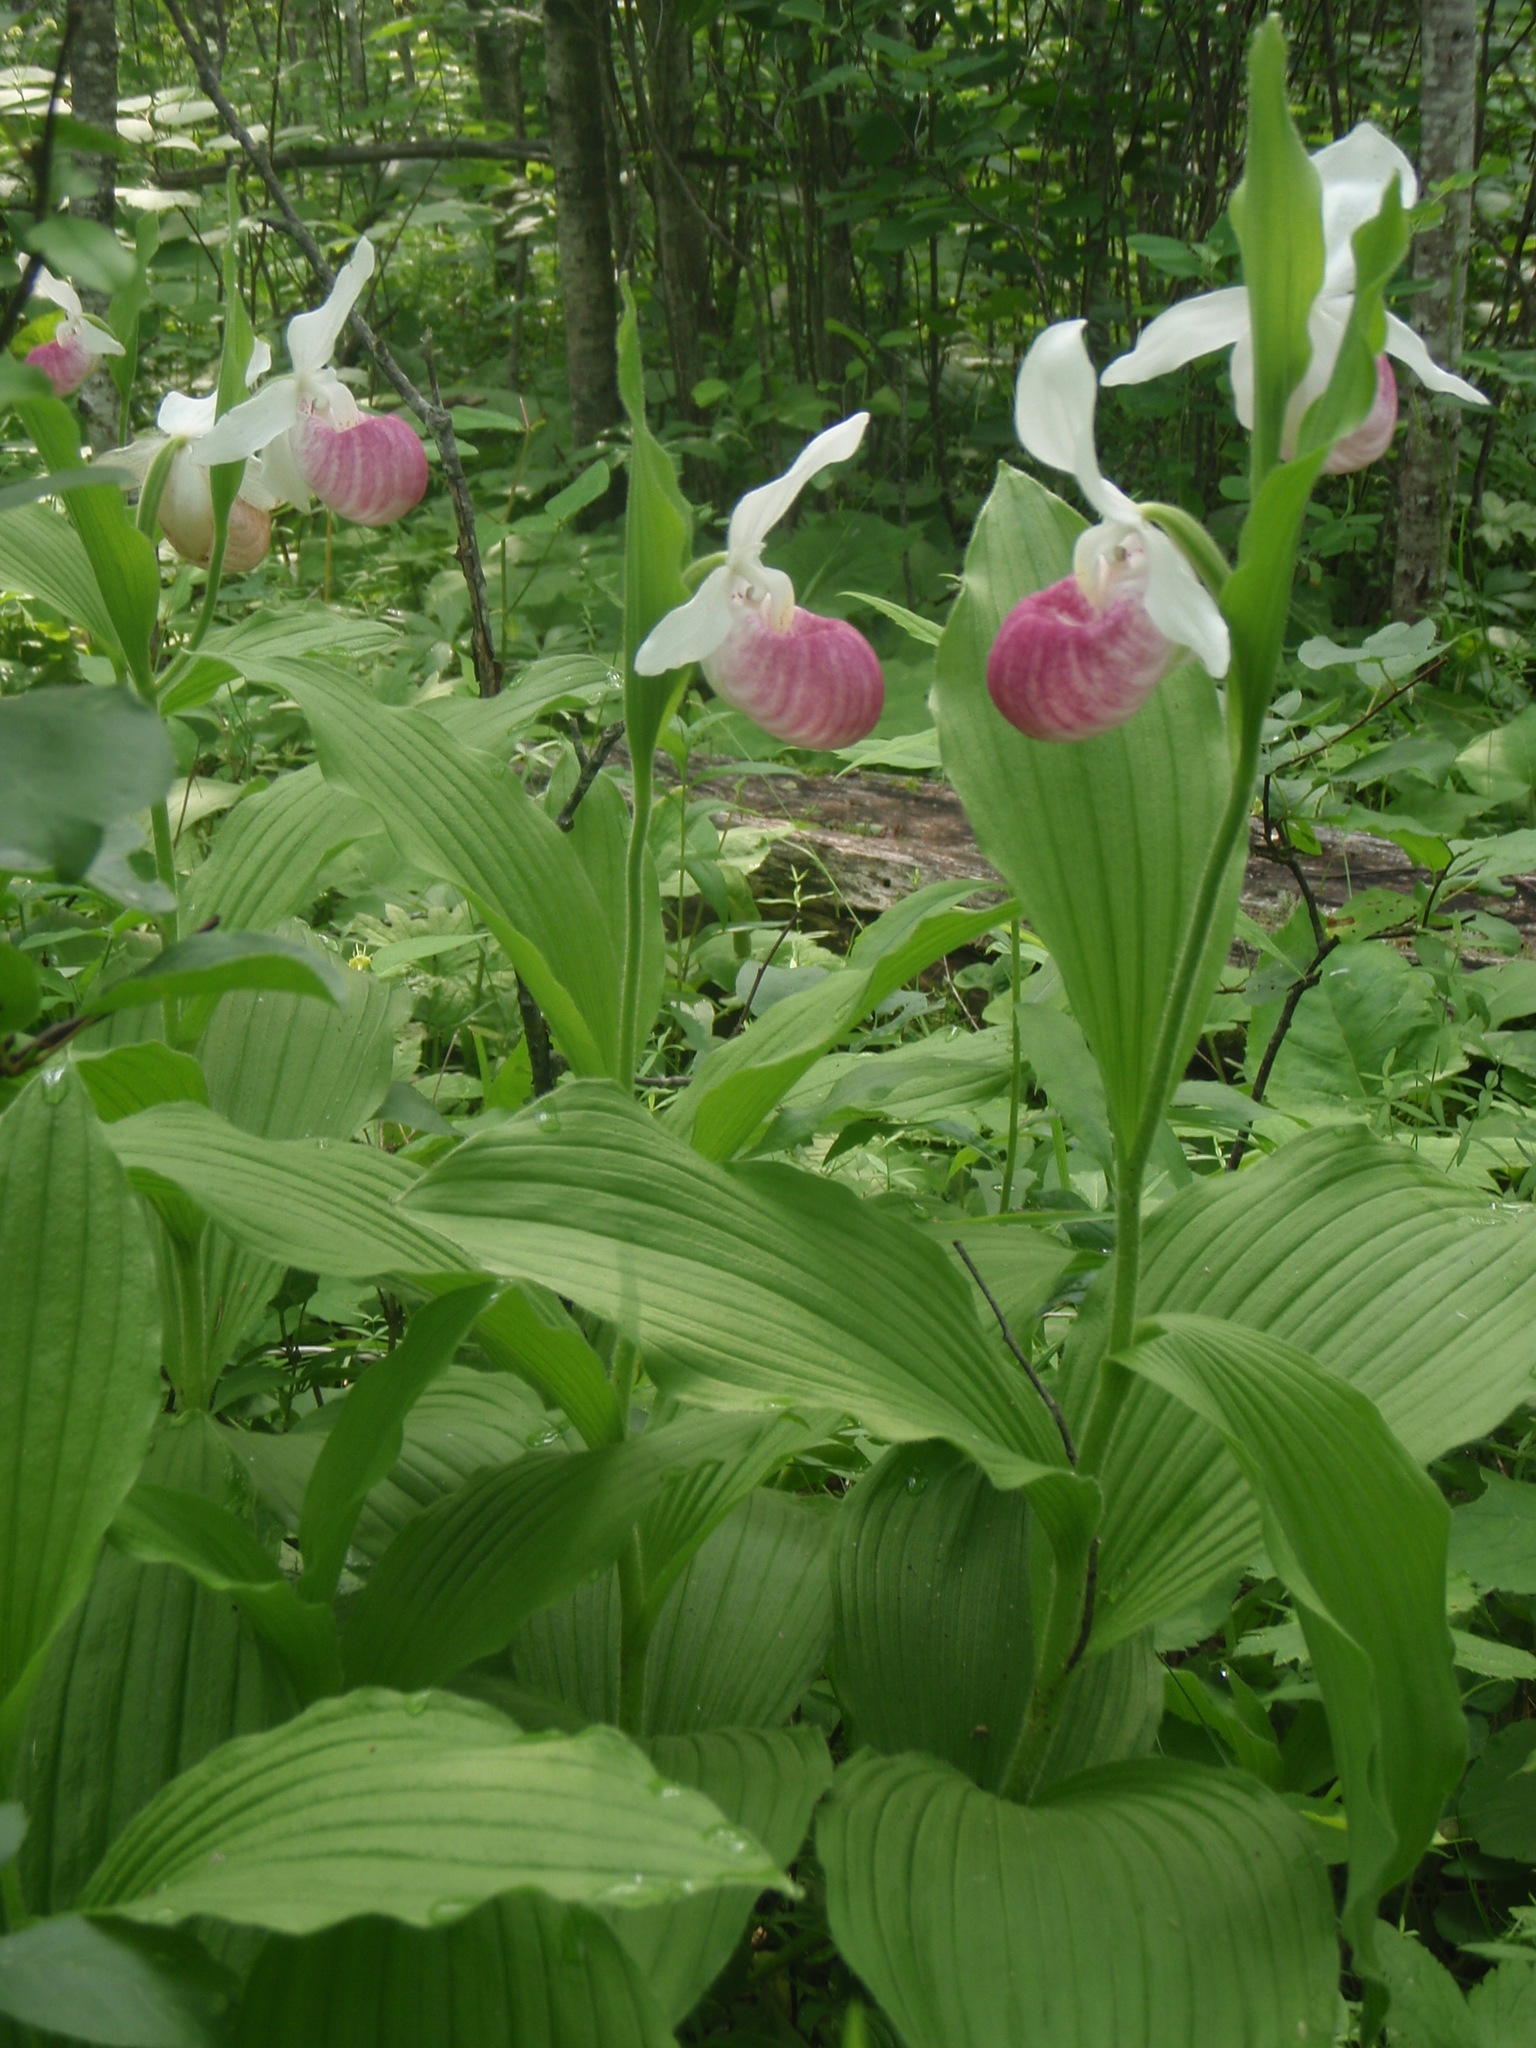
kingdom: Plantae
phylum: Tracheophyta
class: Liliopsida
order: Asparagales
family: Orchidaceae
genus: Cypripedium
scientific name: Cypripedium reginae
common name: Queen lady's-slipper
